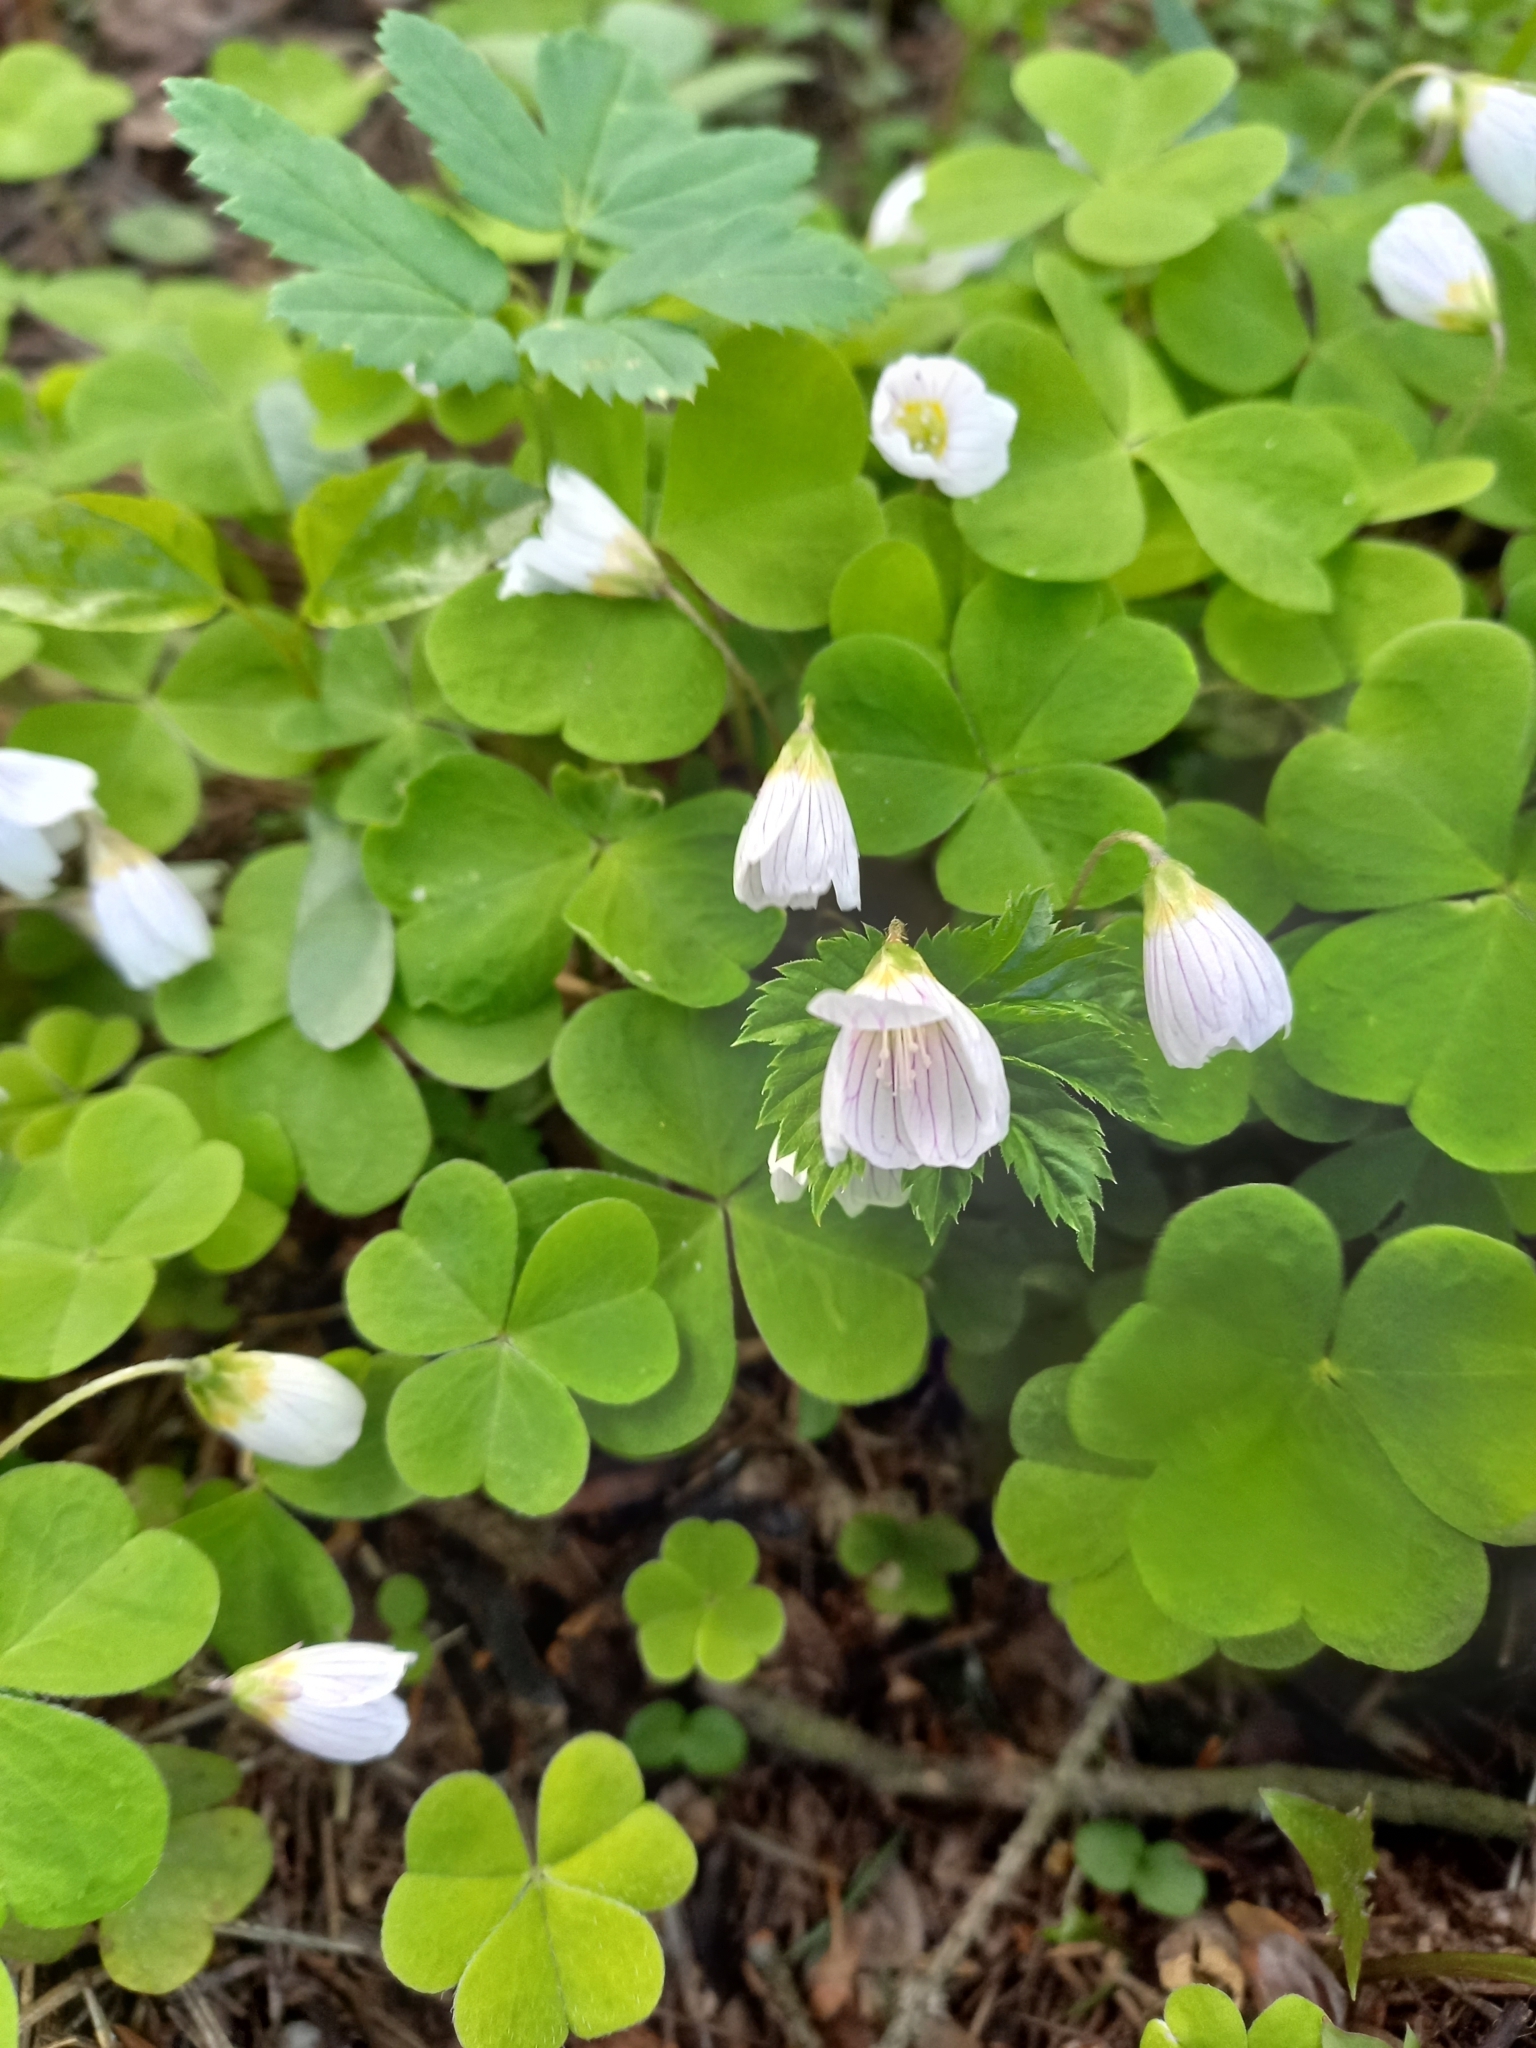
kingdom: Plantae
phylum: Tracheophyta
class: Magnoliopsida
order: Oxalidales
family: Oxalidaceae
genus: Oxalis
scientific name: Oxalis acetosella
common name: Wood-sorrel
